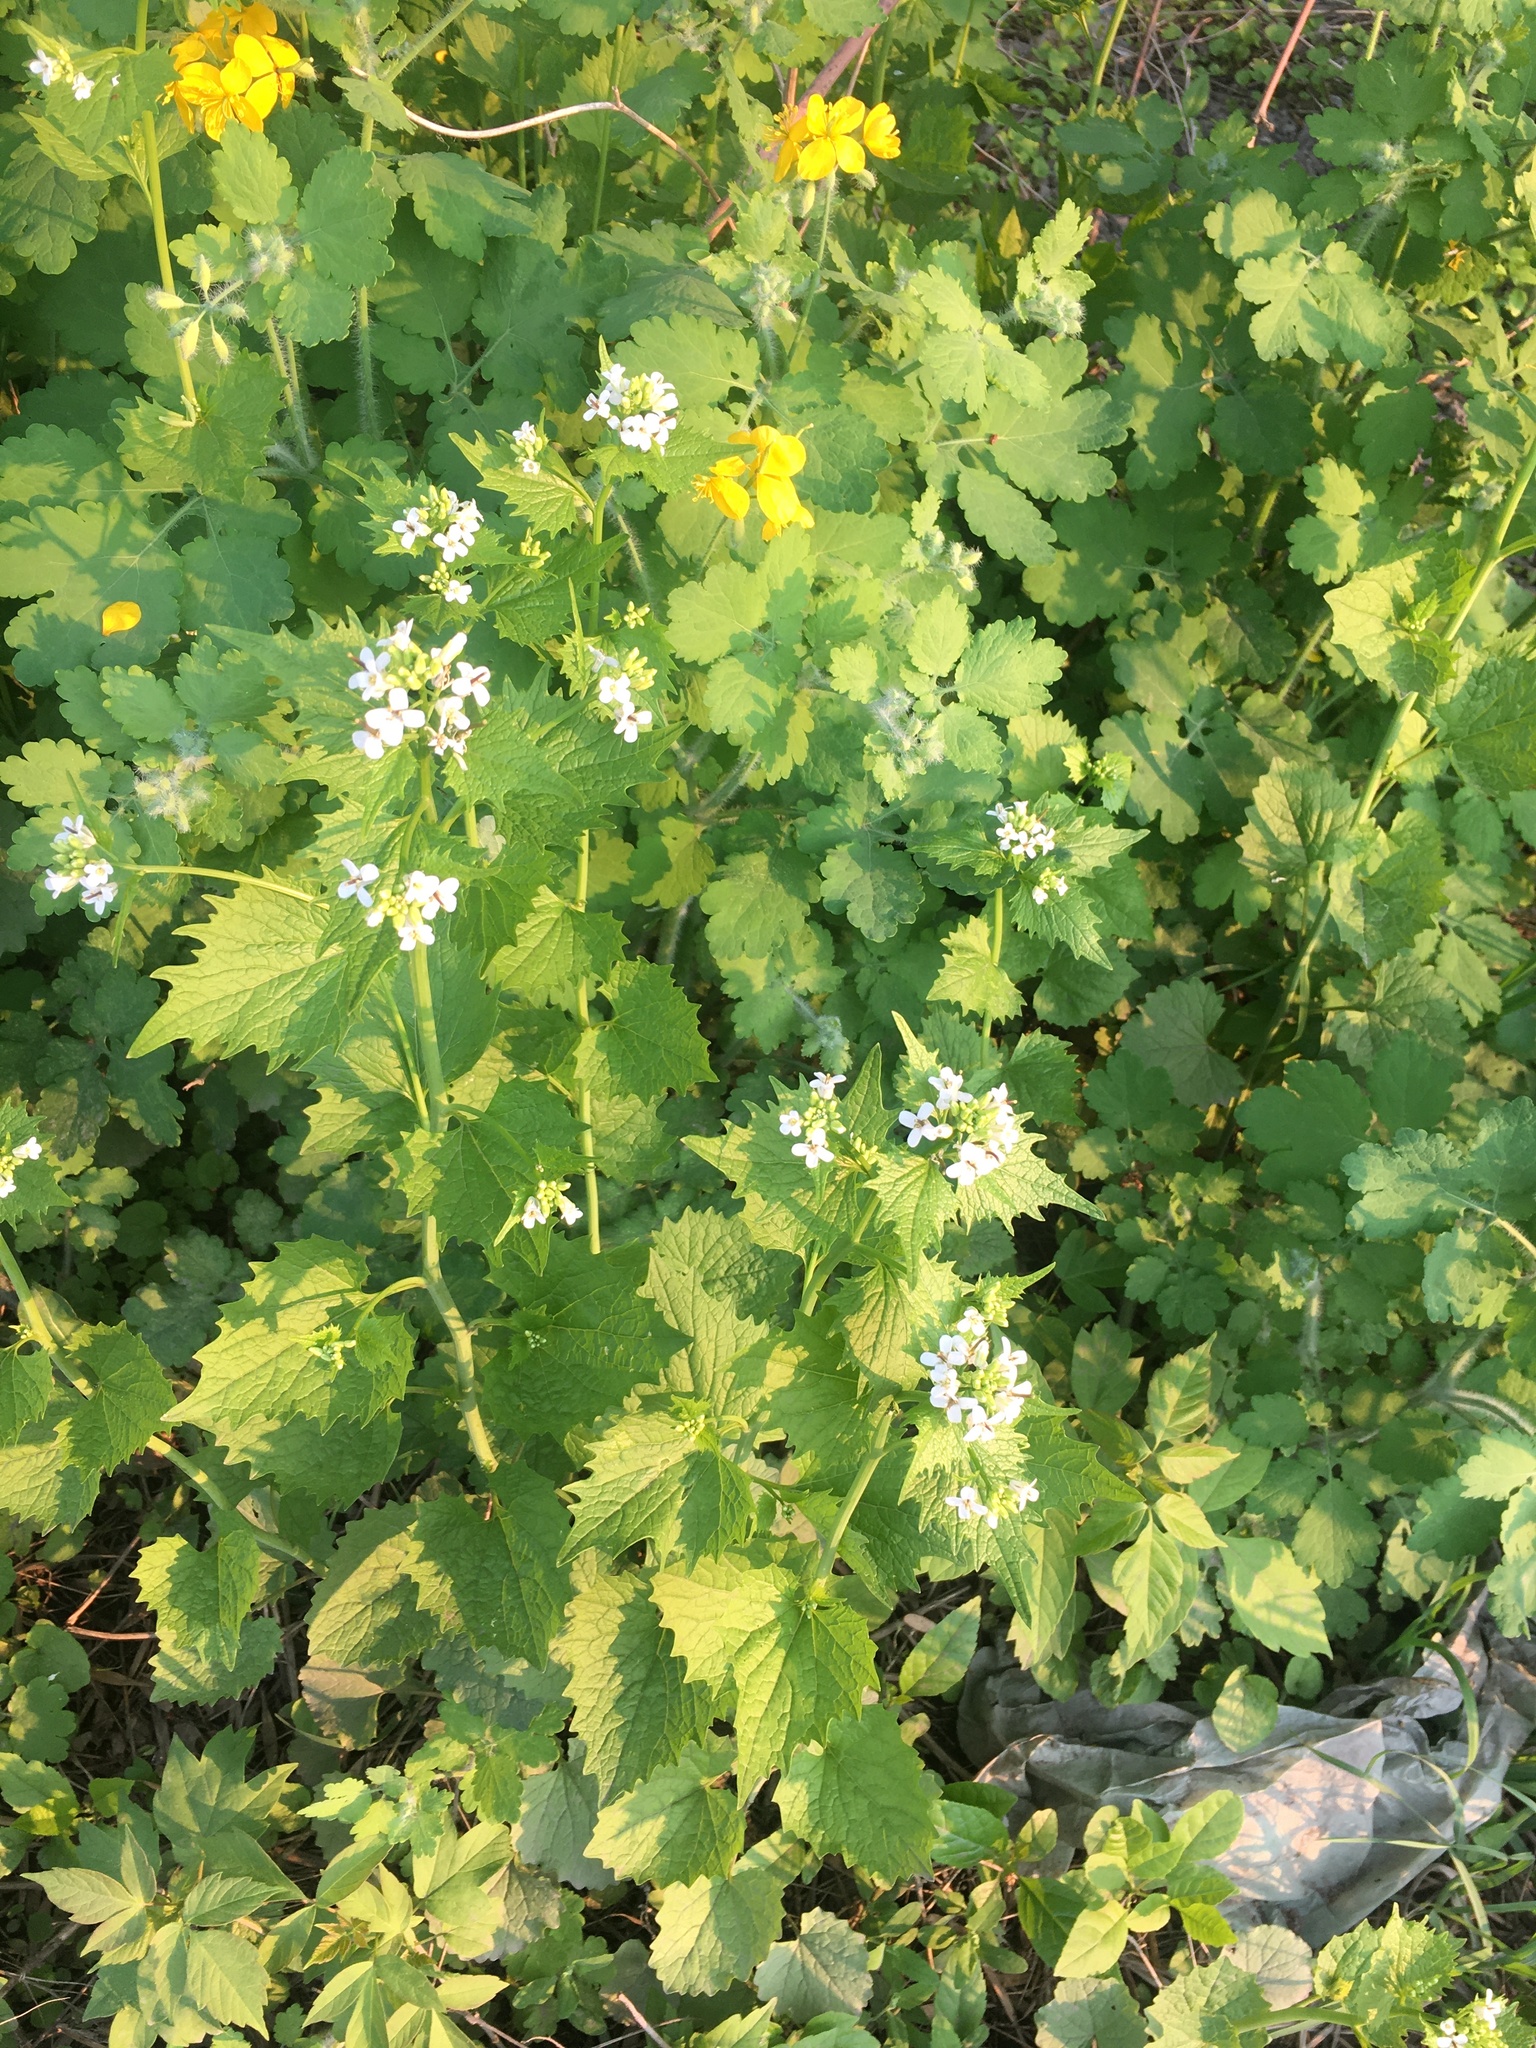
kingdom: Plantae
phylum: Tracheophyta
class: Magnoliopsida
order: Brassicales
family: Brassicaceae
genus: Alliaria
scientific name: Alliaria petiolata
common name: Garlic mustard
